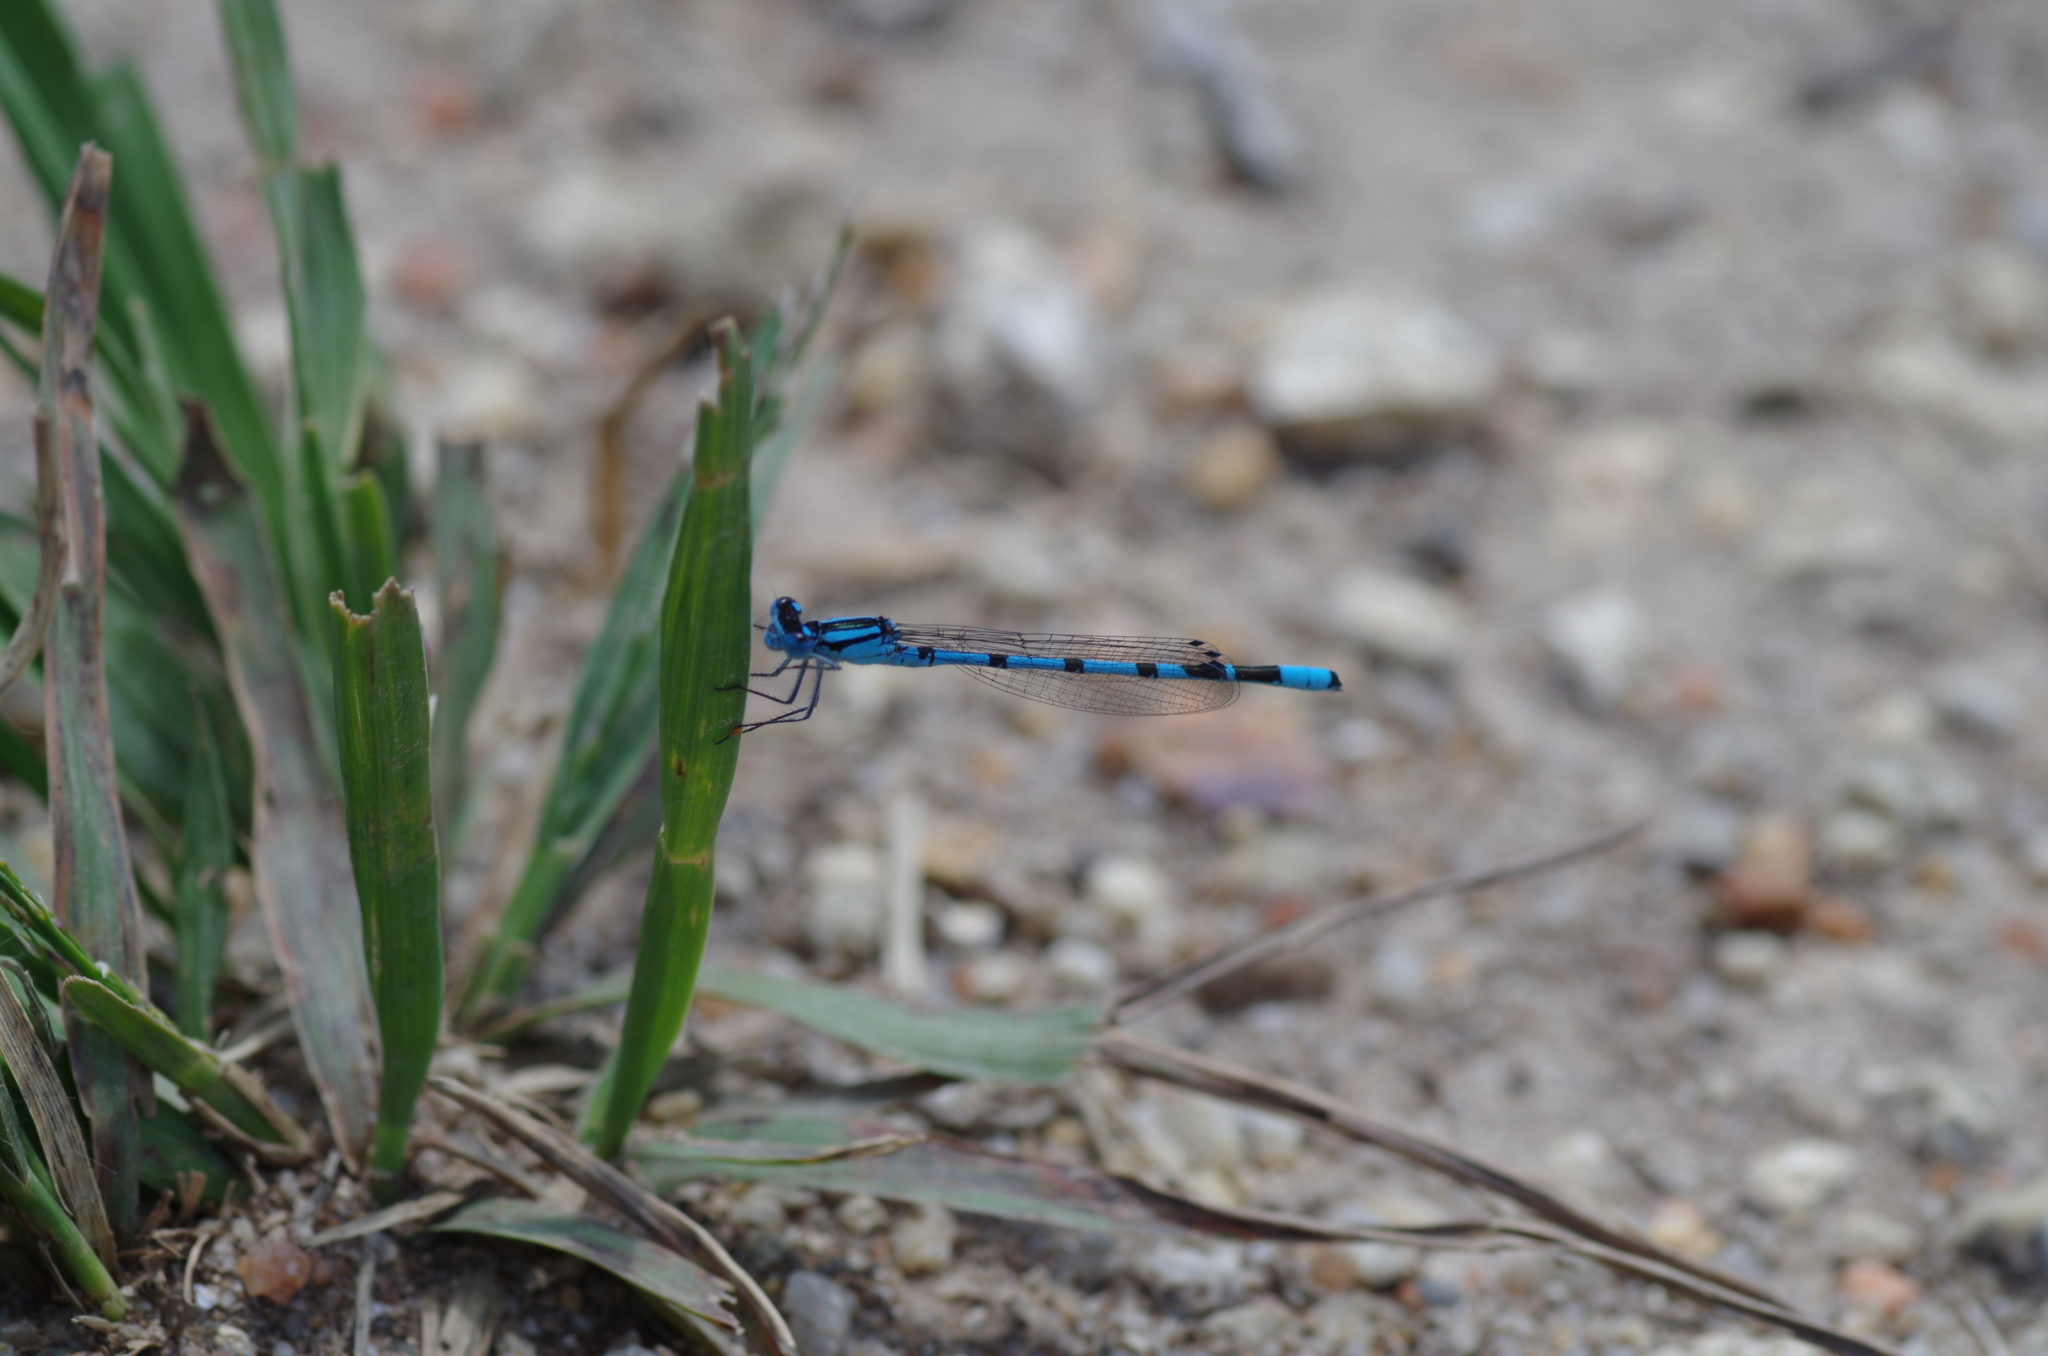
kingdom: Animalia
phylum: Arthropoda
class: Insecta
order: Odonata
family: Coenagrionidae
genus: Enallagma
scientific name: Enallagma cyathigerum
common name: Common blue damselfly
